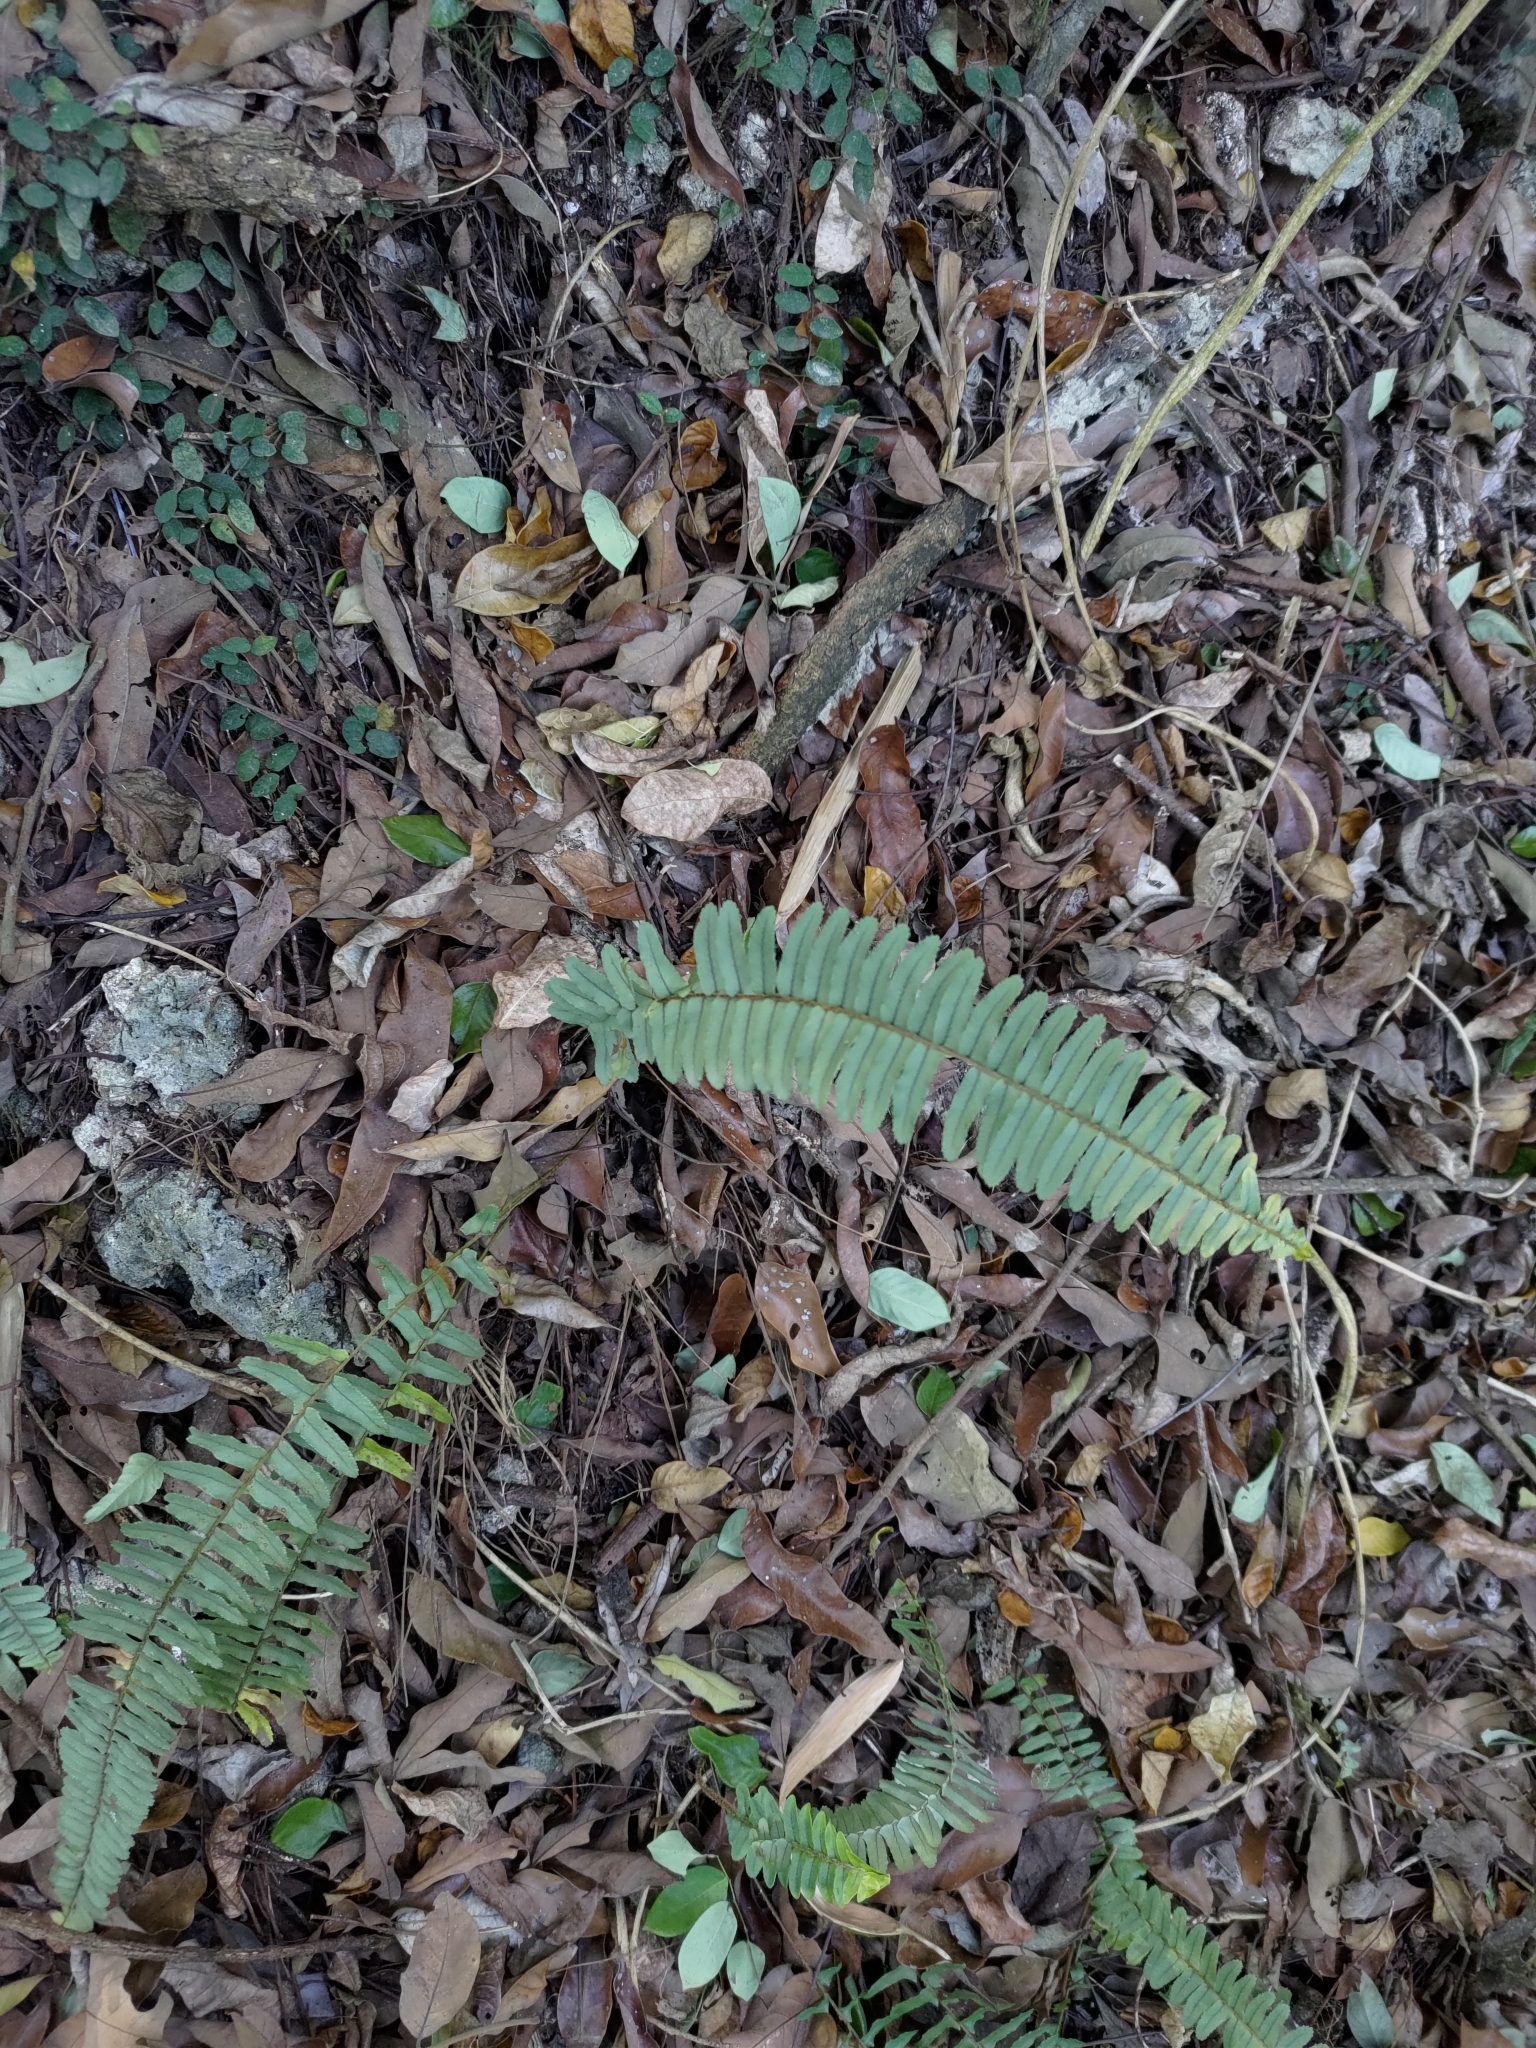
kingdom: Plantae
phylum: Tracheophyta
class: Polypodiopsida
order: Polypodiales
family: Nephrolepidaceae
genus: Nephrolepis
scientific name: Nephrolepis cordifolia
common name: Narrow swordfern
